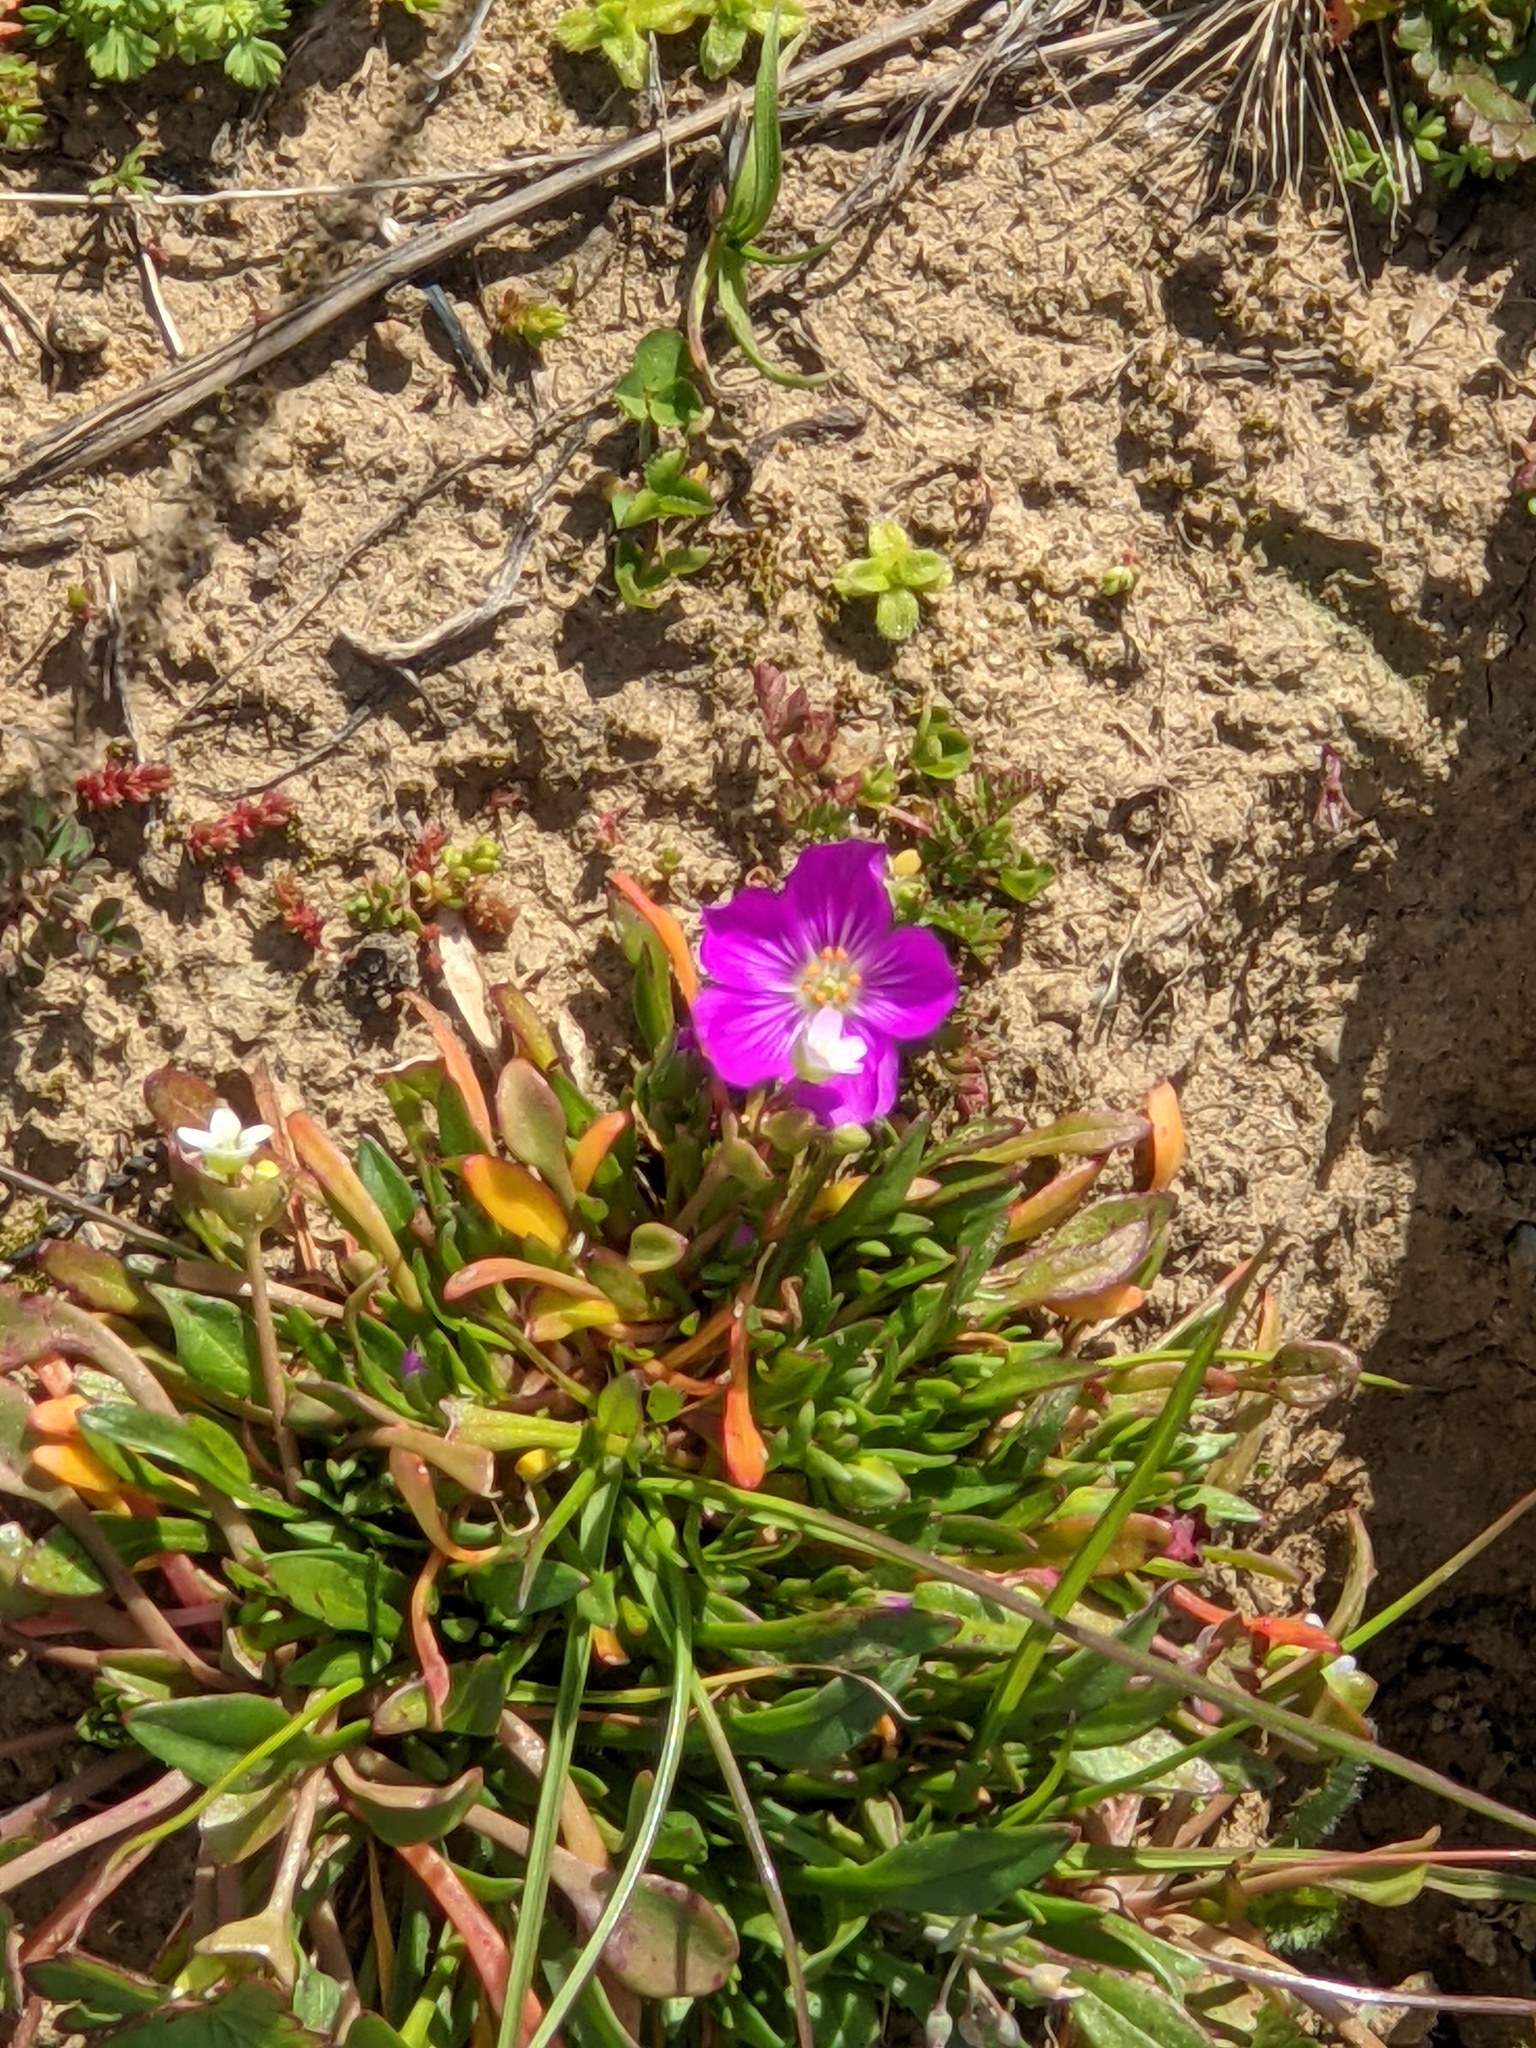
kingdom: Plantae
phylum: Tracheophyta
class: Magnoliopsida
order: Caryophyllales
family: Montiaceae
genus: Calandrinia
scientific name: Calandrinia menziesii
